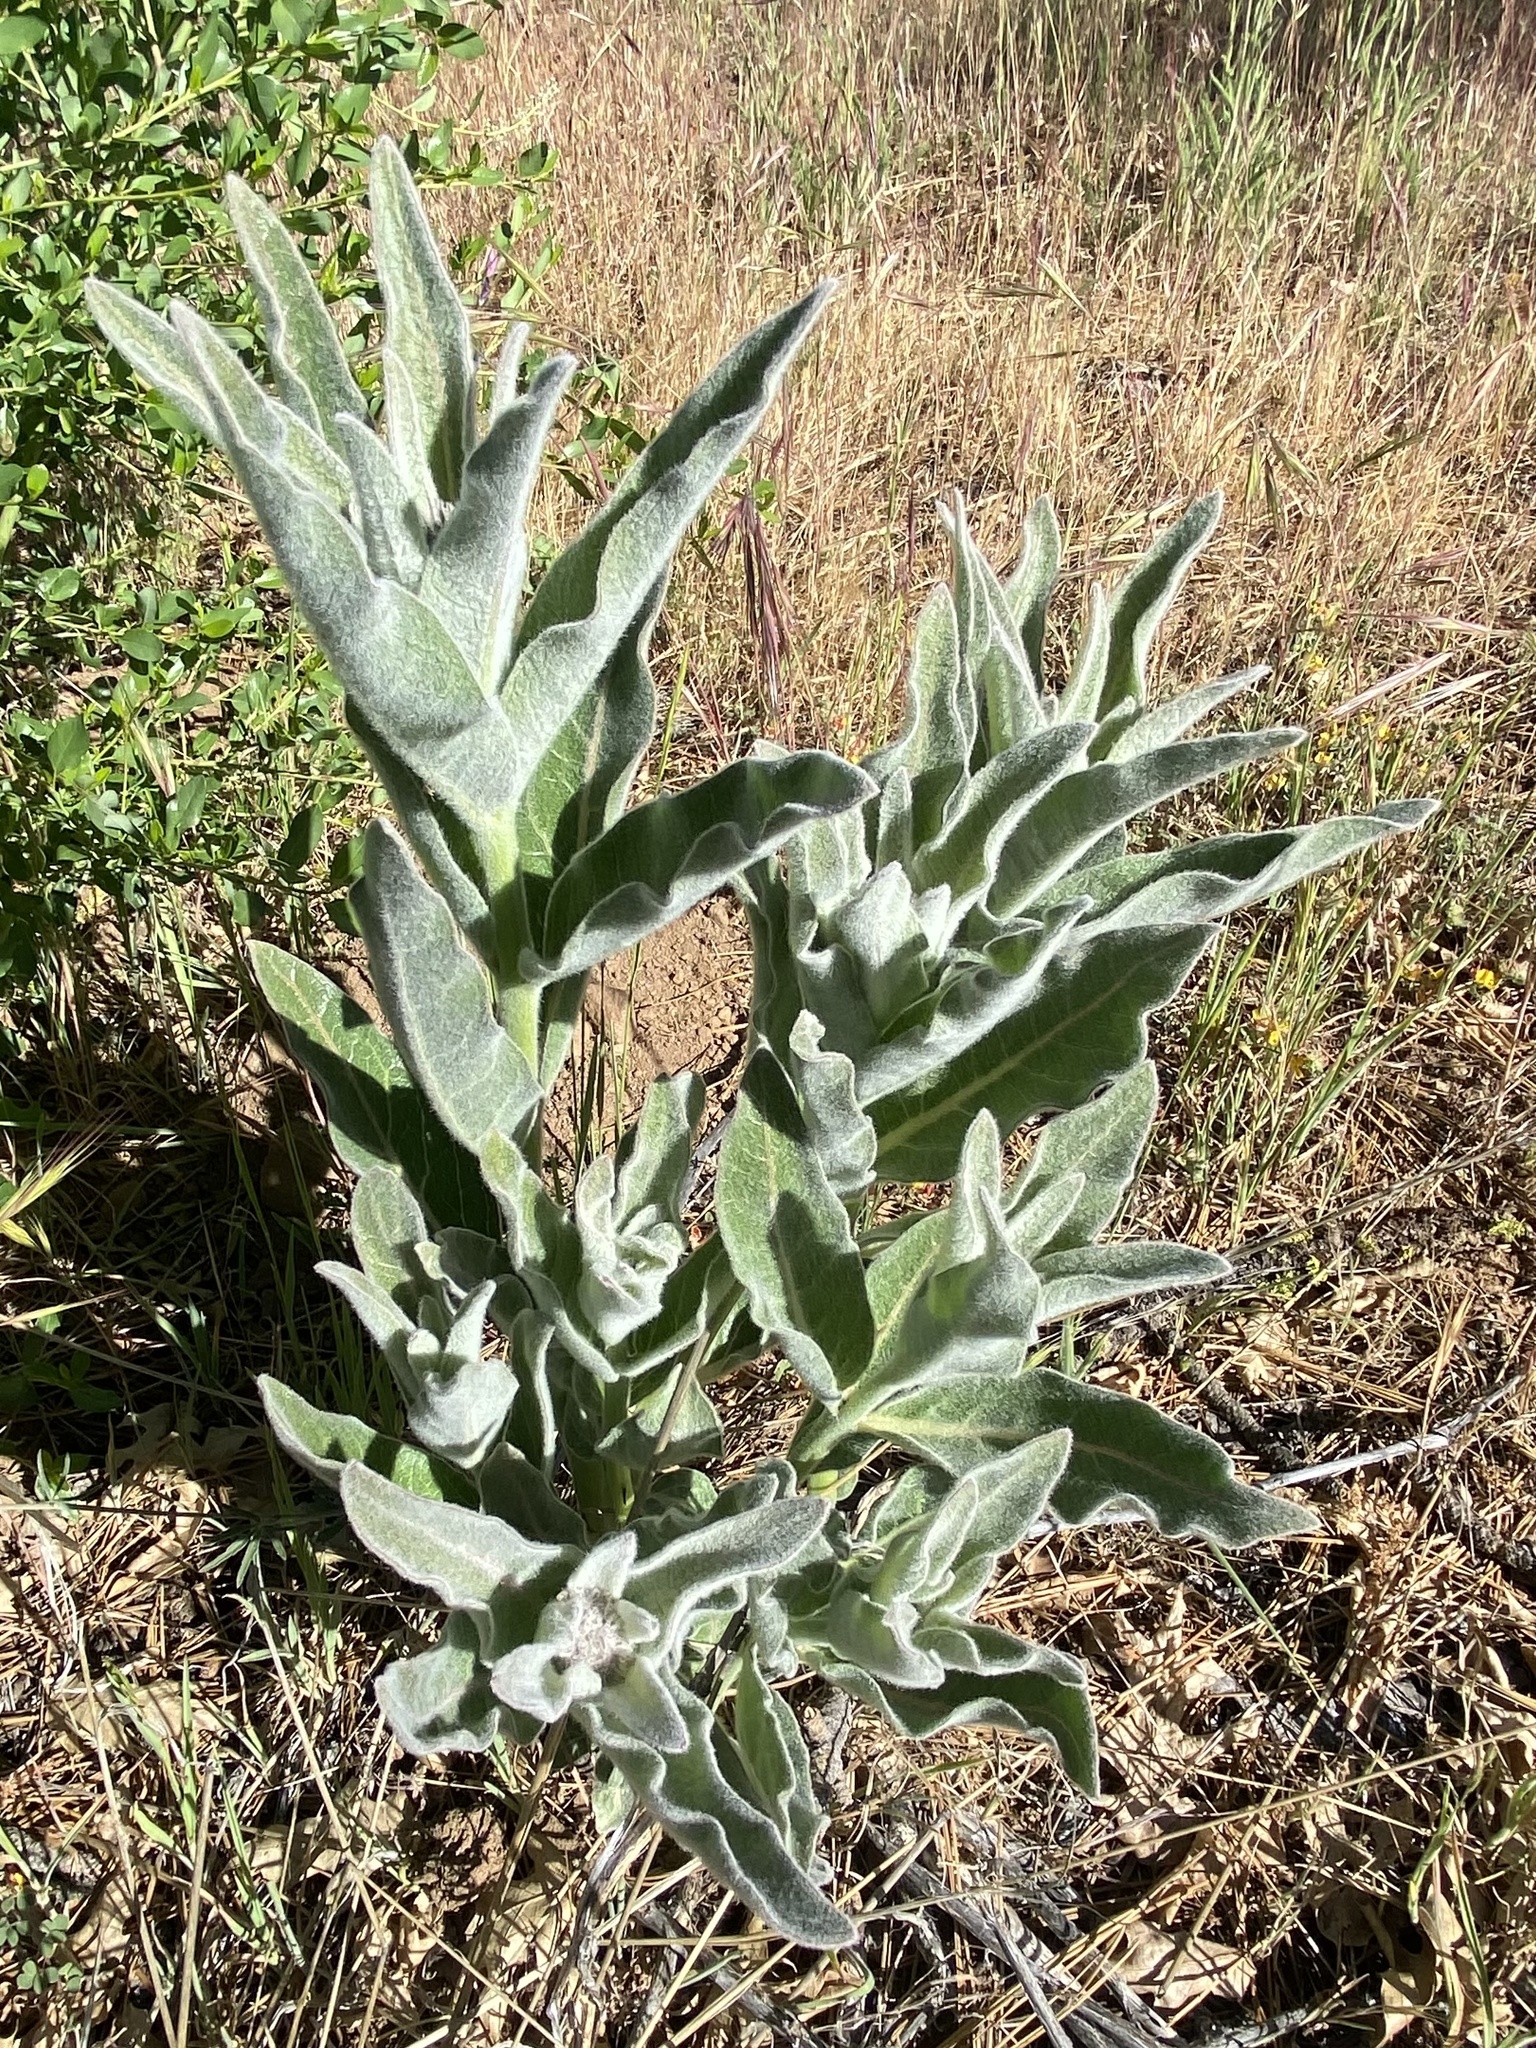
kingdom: Plantae
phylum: Tracheophyta
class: Magnoliopsida
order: Gentianales
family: Apocynaceae
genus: Asclepias
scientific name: Asclepias eriocarpa
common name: Indian milkweed
